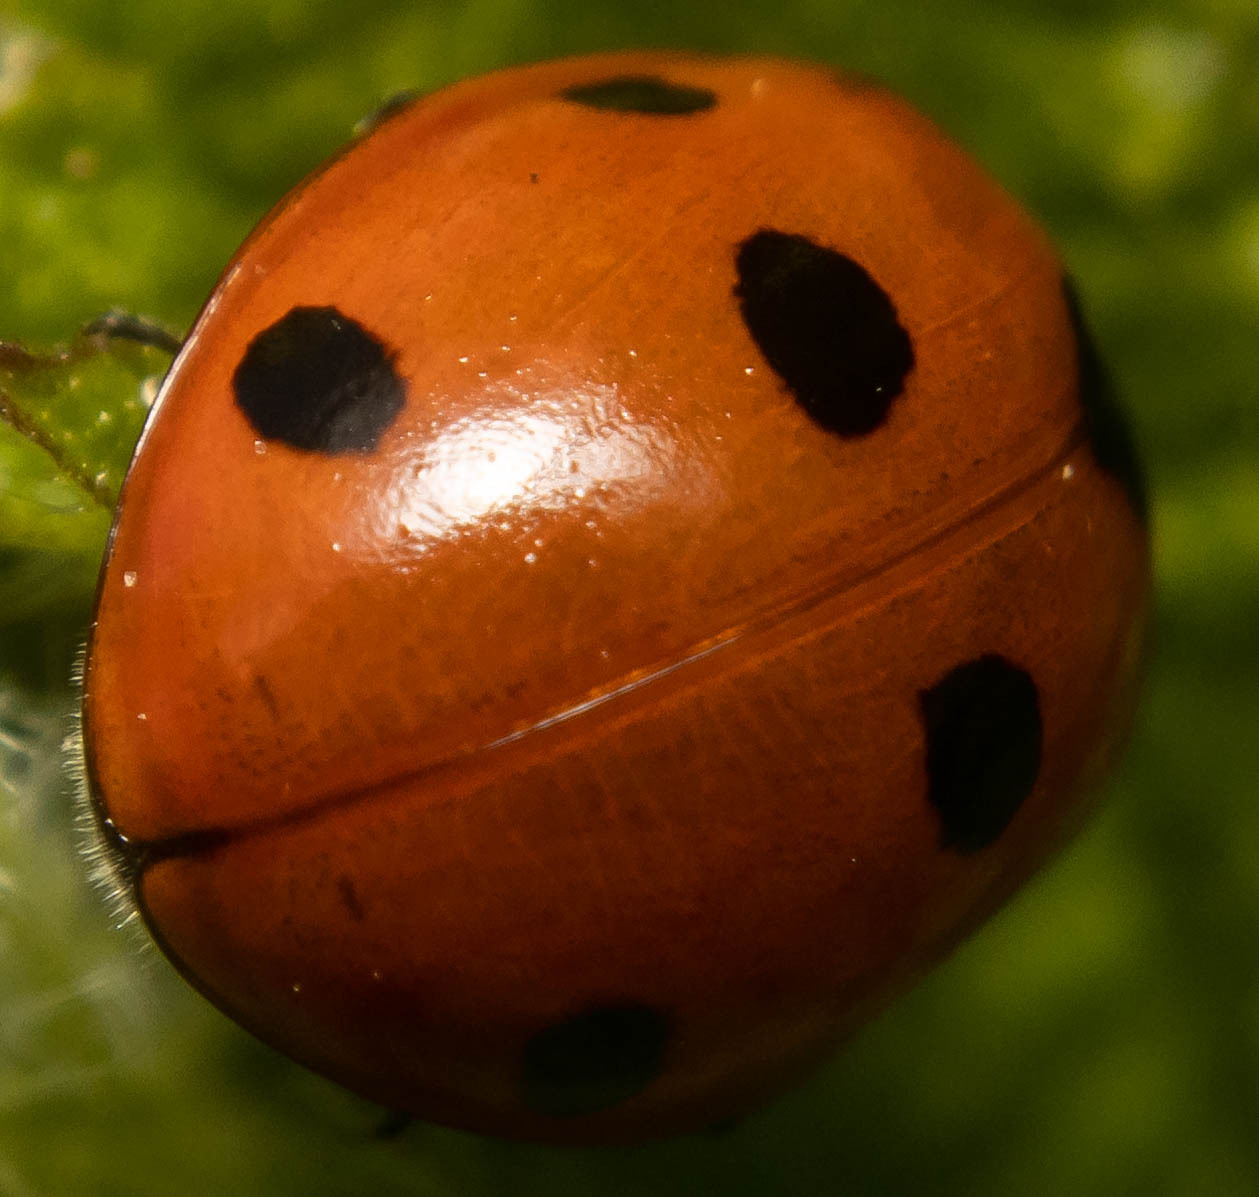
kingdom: Animalia
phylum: Arthropoda
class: Insecta
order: Coleoptera
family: Coccinellidae
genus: Coccinella
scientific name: Coccinella septempunctata
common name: Sevenspotted lady beetle
